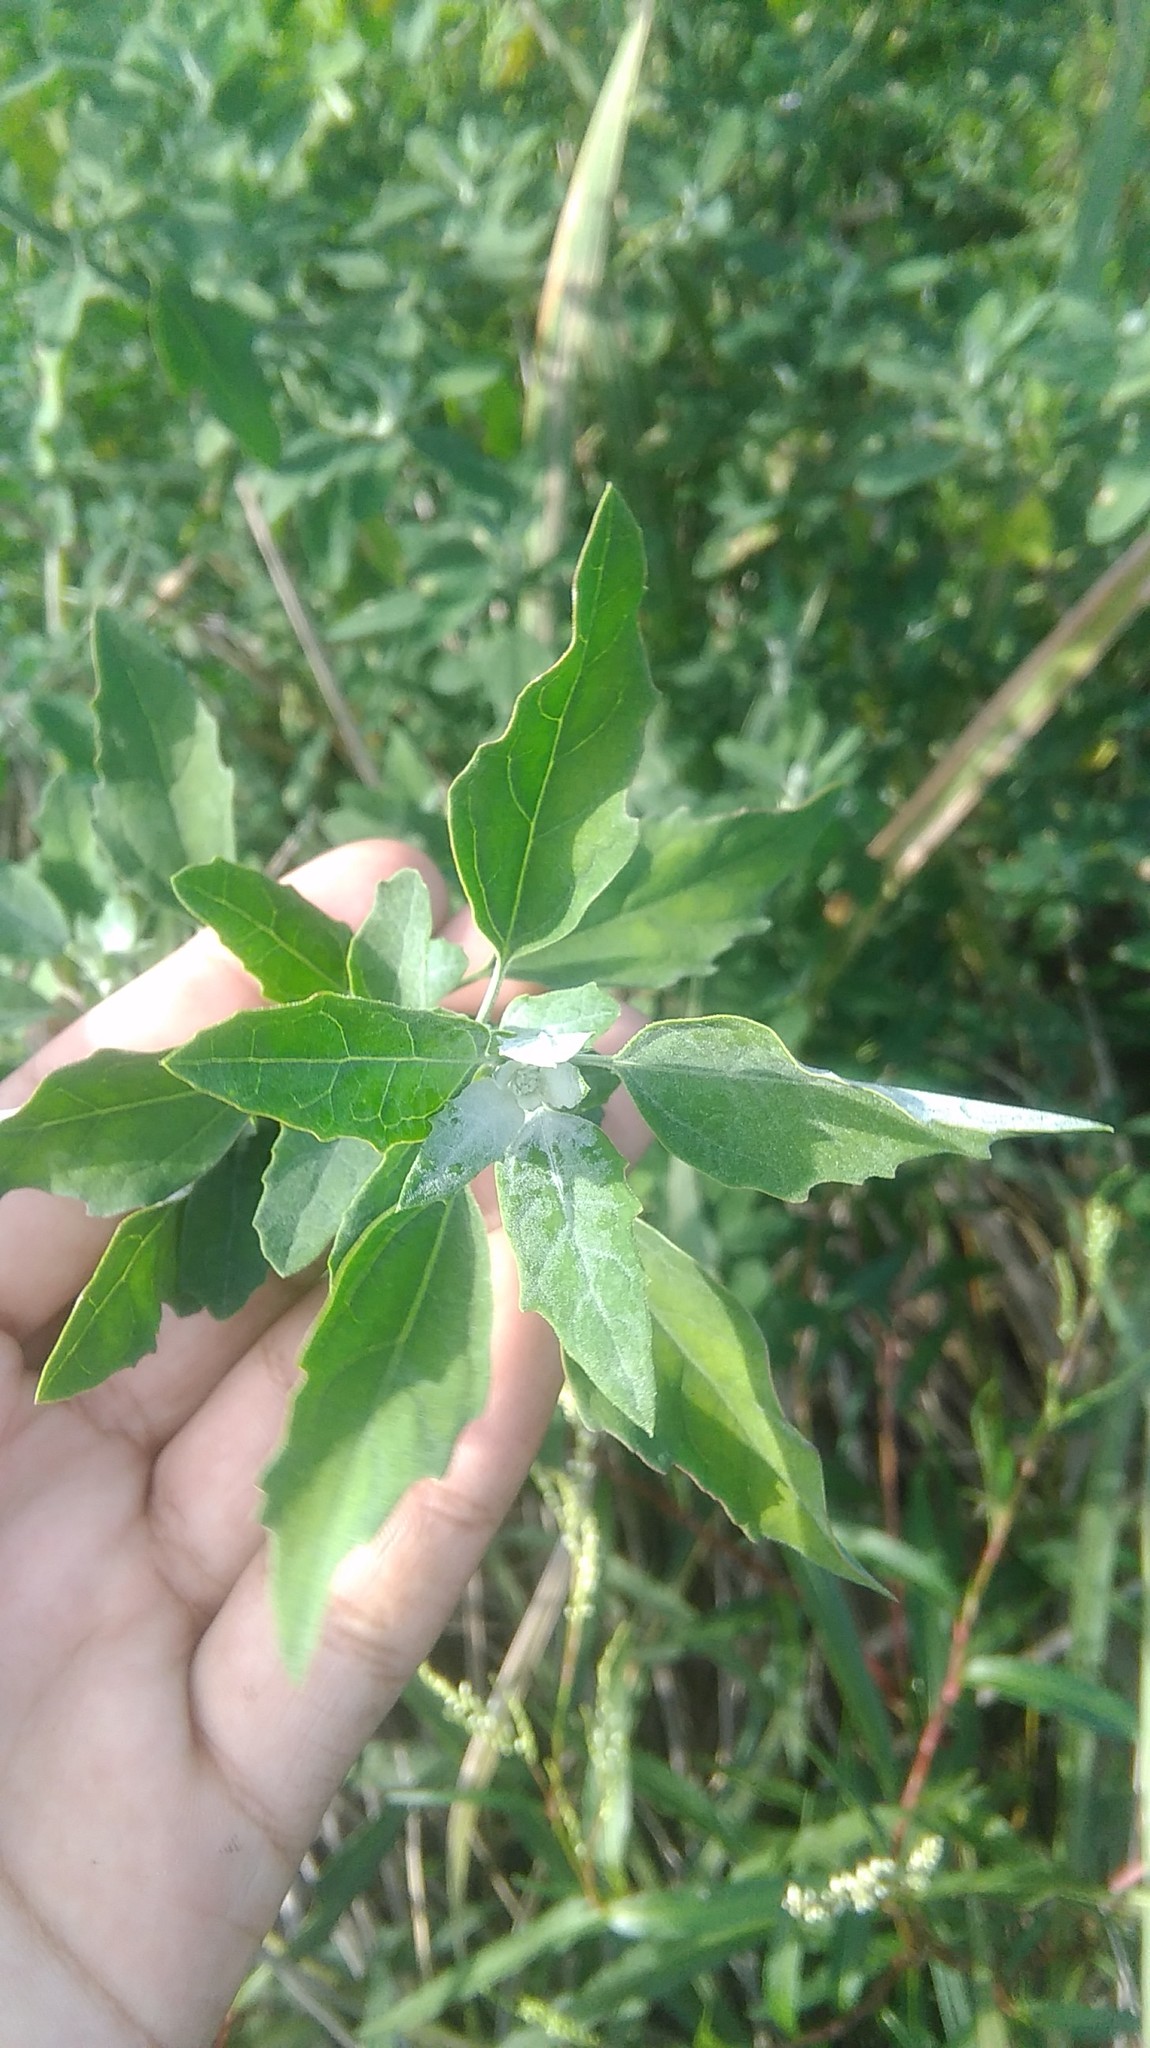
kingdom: Plantae
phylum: Tracheophyta
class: Magnoliopsida
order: Caryophyllales
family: Amaranthaceae
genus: Chenopodium
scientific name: Chenopodium album
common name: Fat-hen
